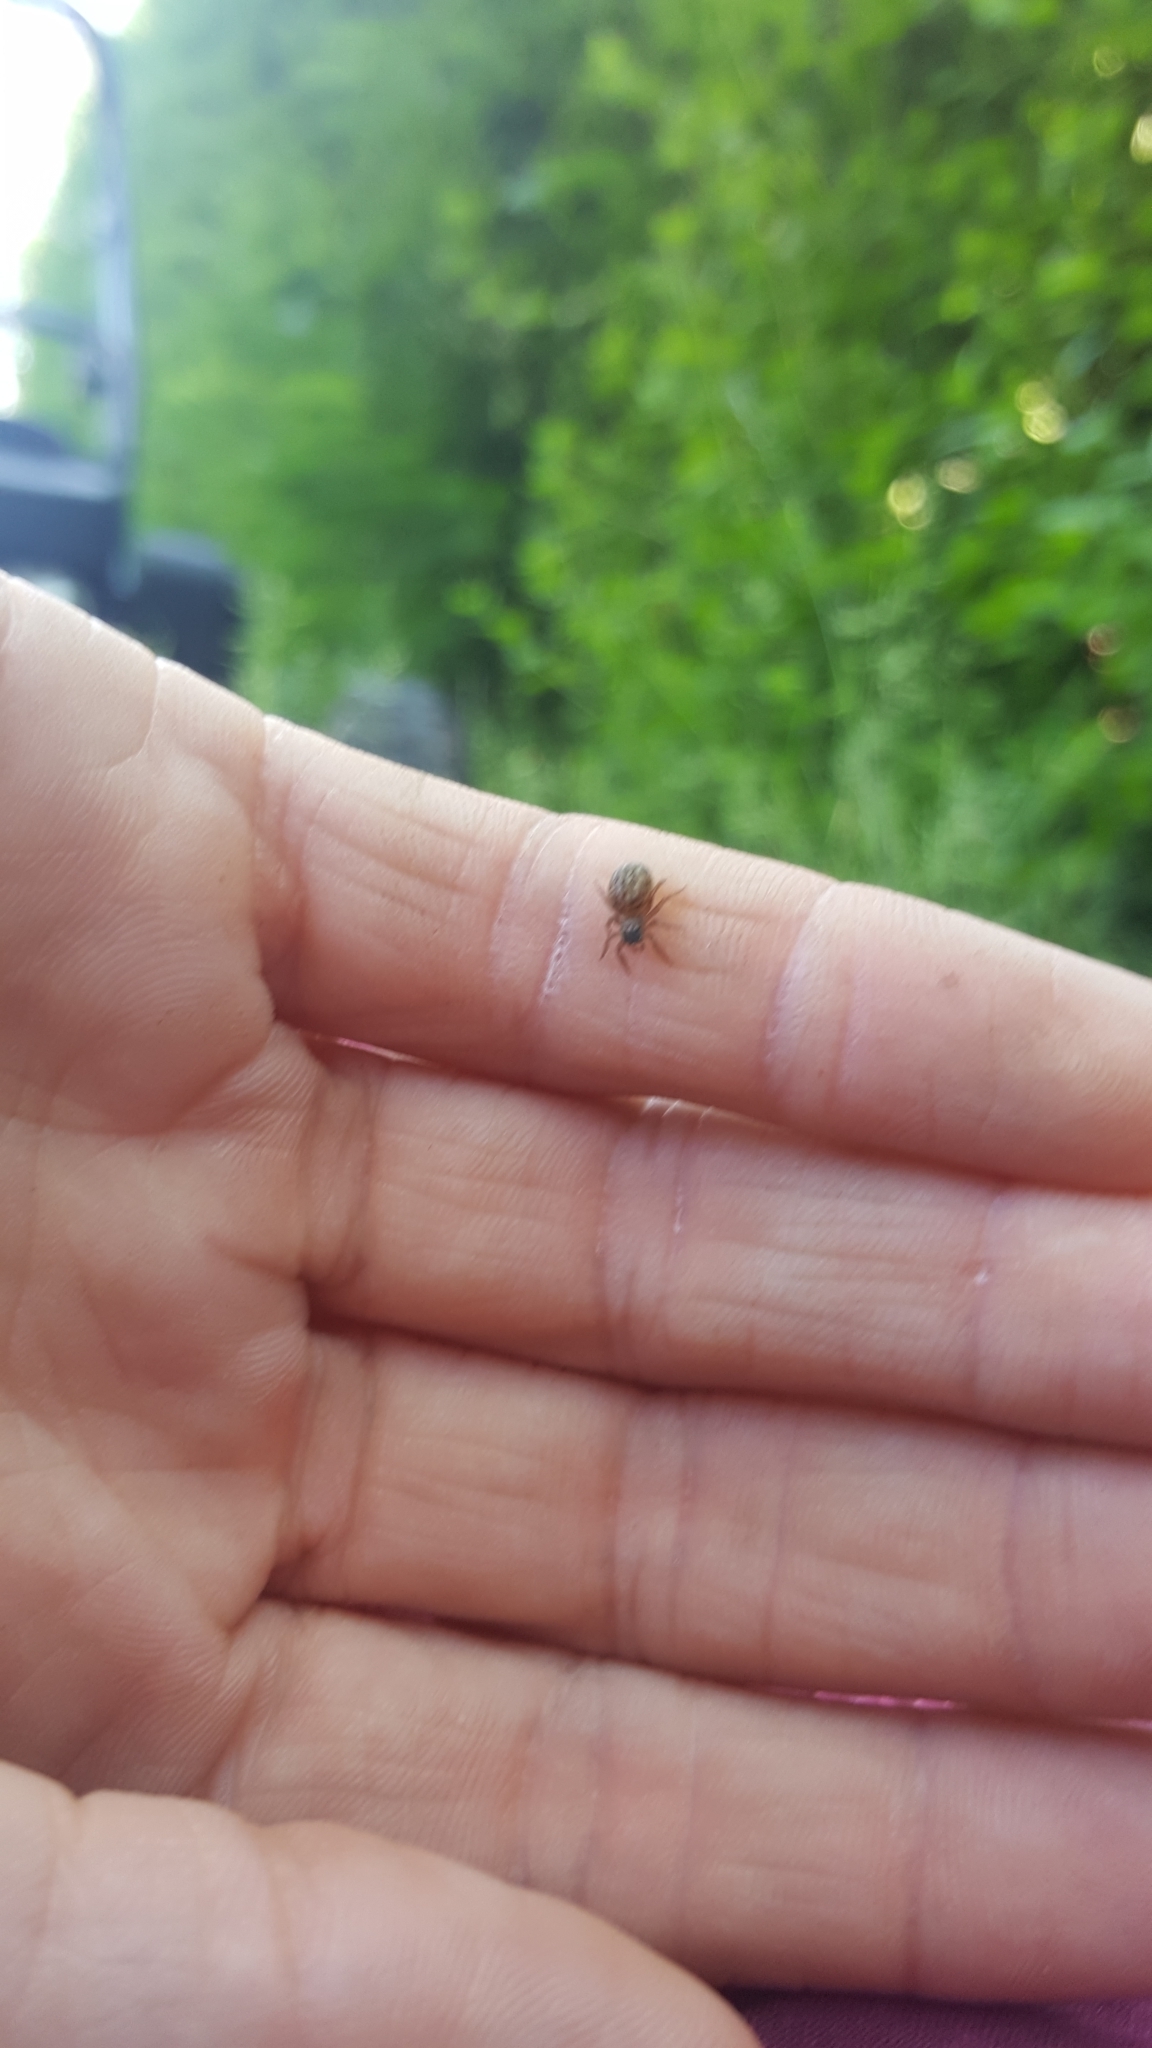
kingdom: Animalia
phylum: Arthropoda
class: Arachnida
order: Araneae
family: Salticidae
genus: Euophrys
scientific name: Euophrys frontalis
